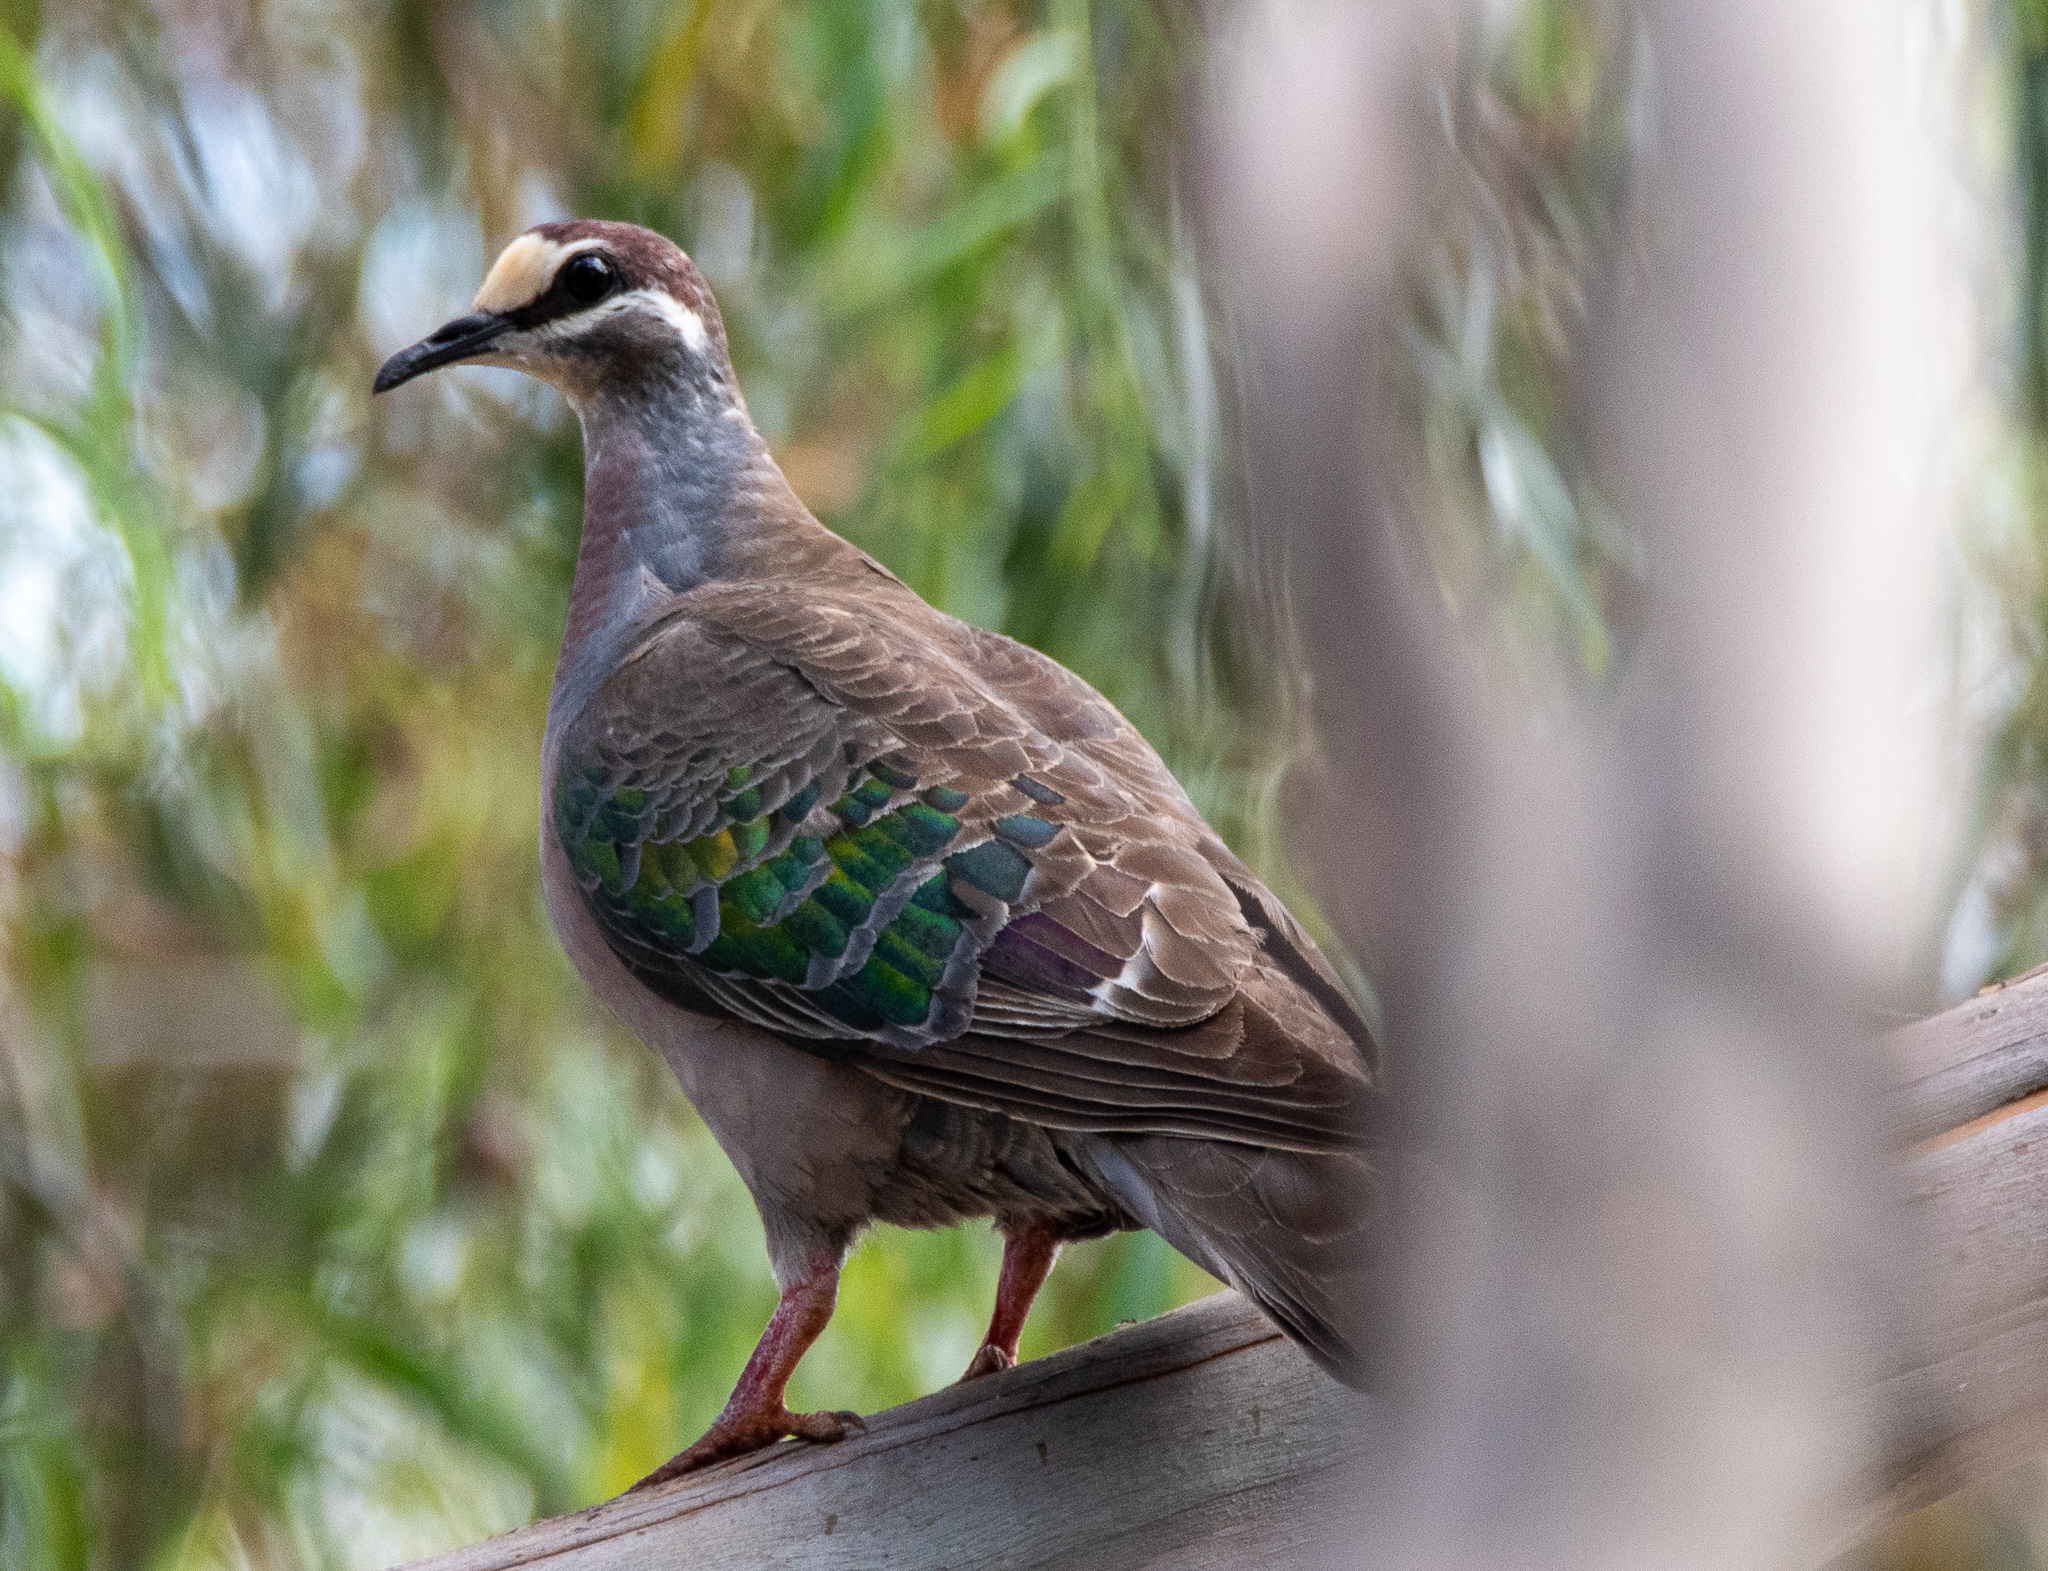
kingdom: Animalia
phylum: Chordata
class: Aves
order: Columbiformes
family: Columbidae
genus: Phaps
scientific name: Phaps chalcoptera
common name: Common bronzewing
